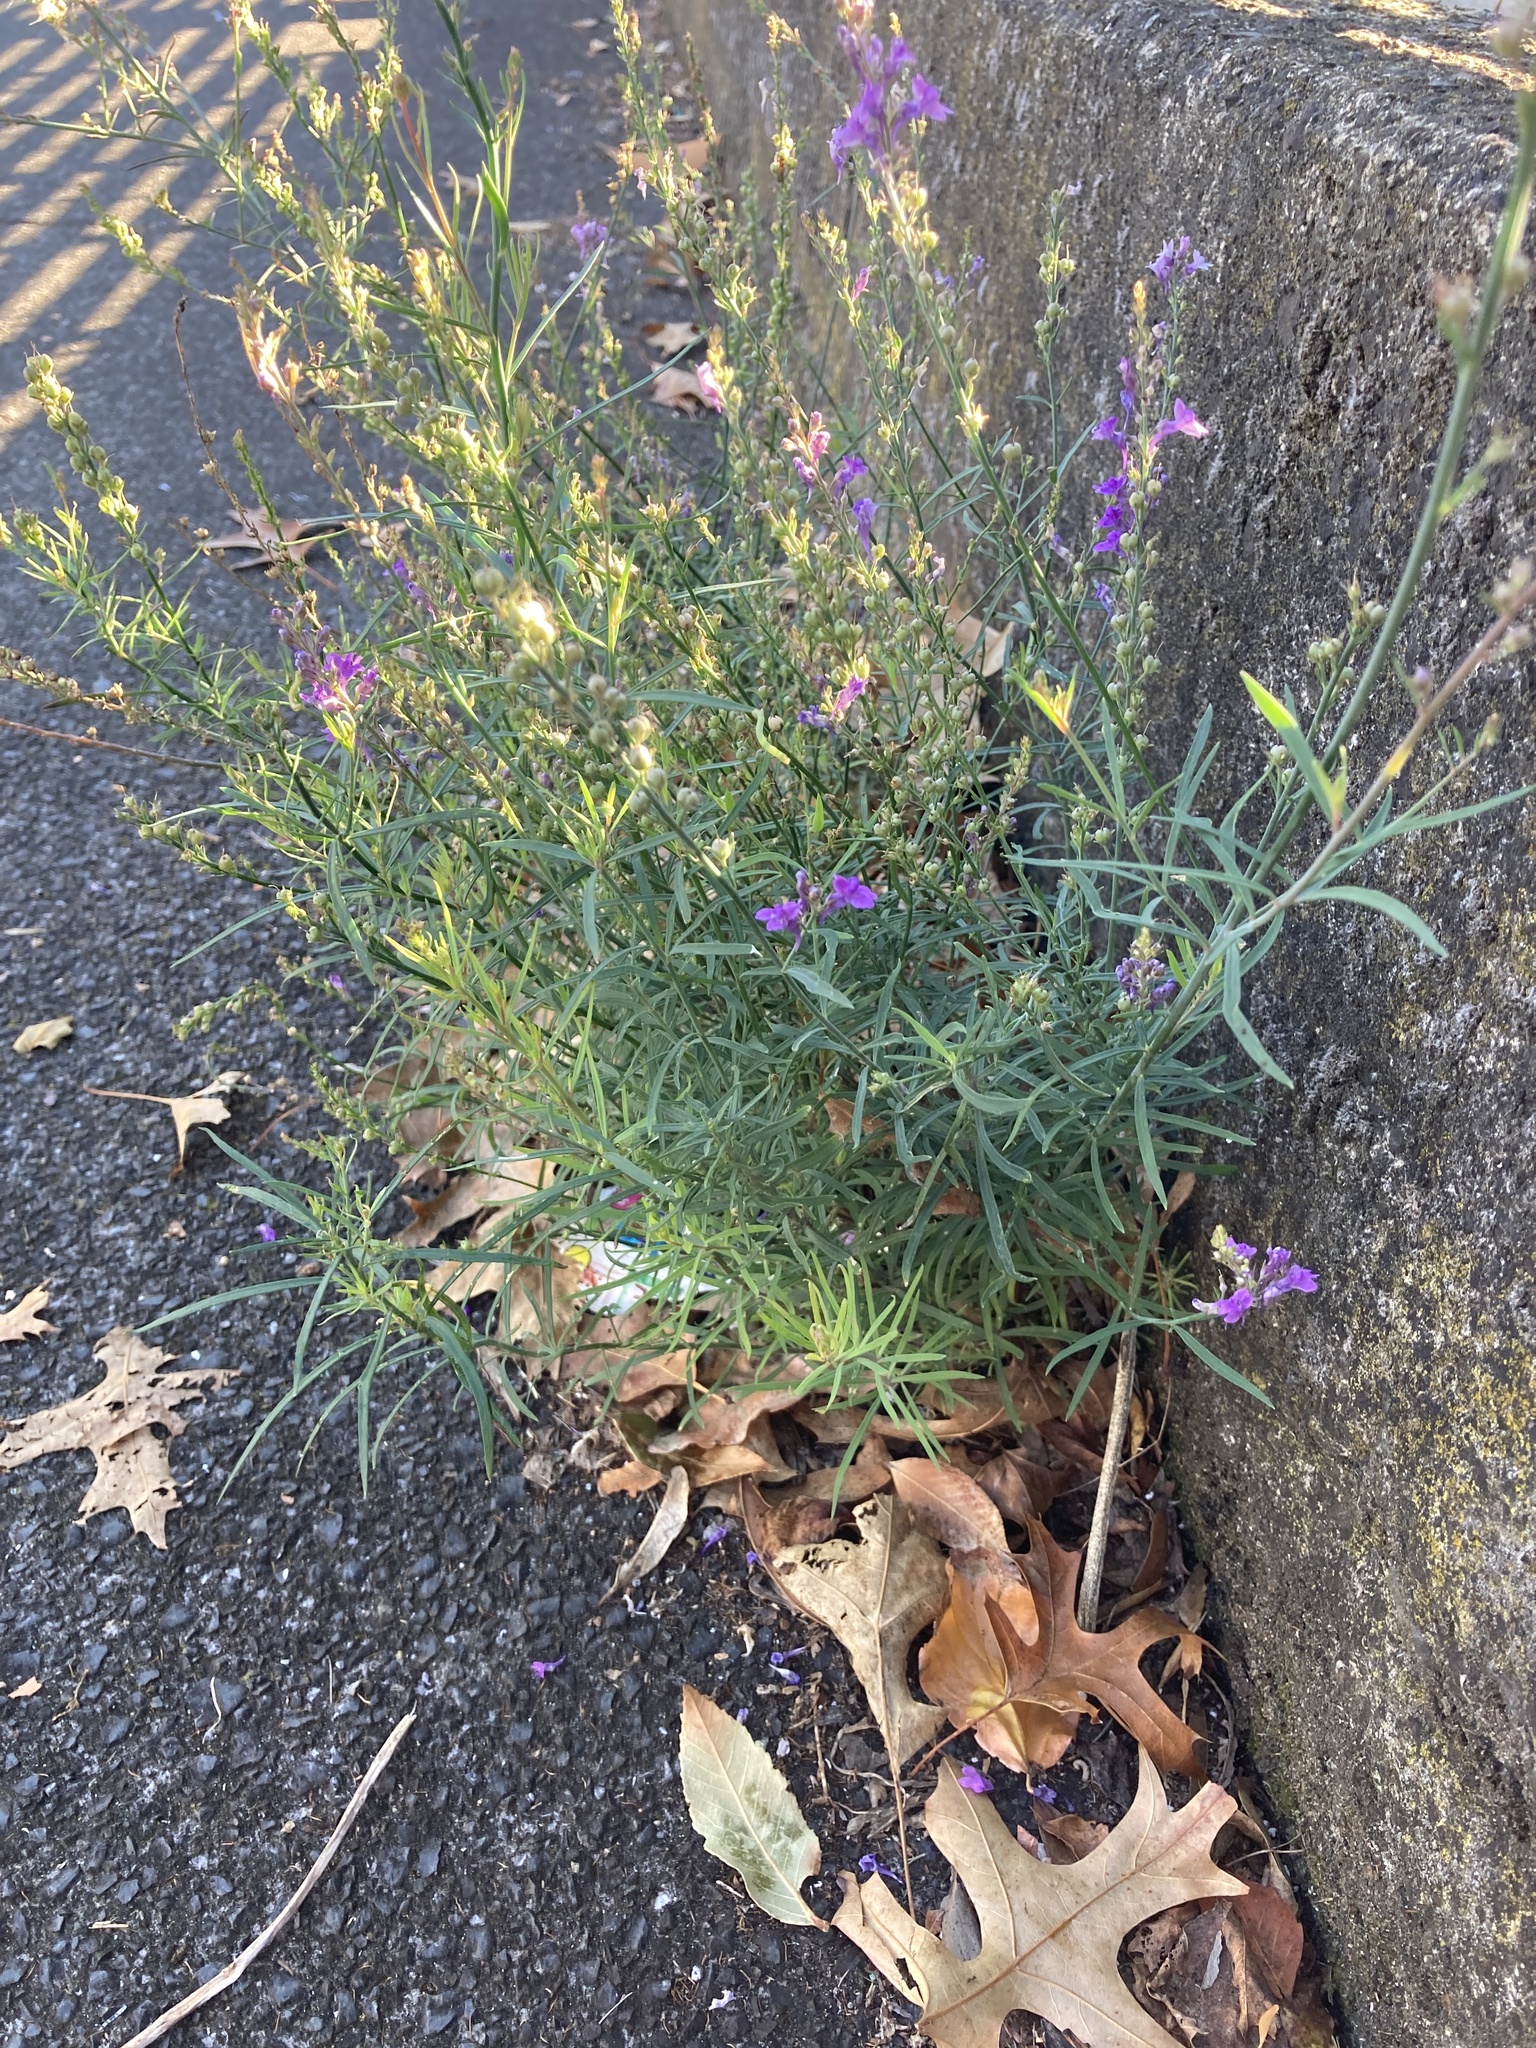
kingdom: Plantae
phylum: Tracheophyta
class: Magnoliopsida
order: Lamiales
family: Plantaginaceae
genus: Linaria
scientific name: Linaria purpurea
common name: Purple toadflax
